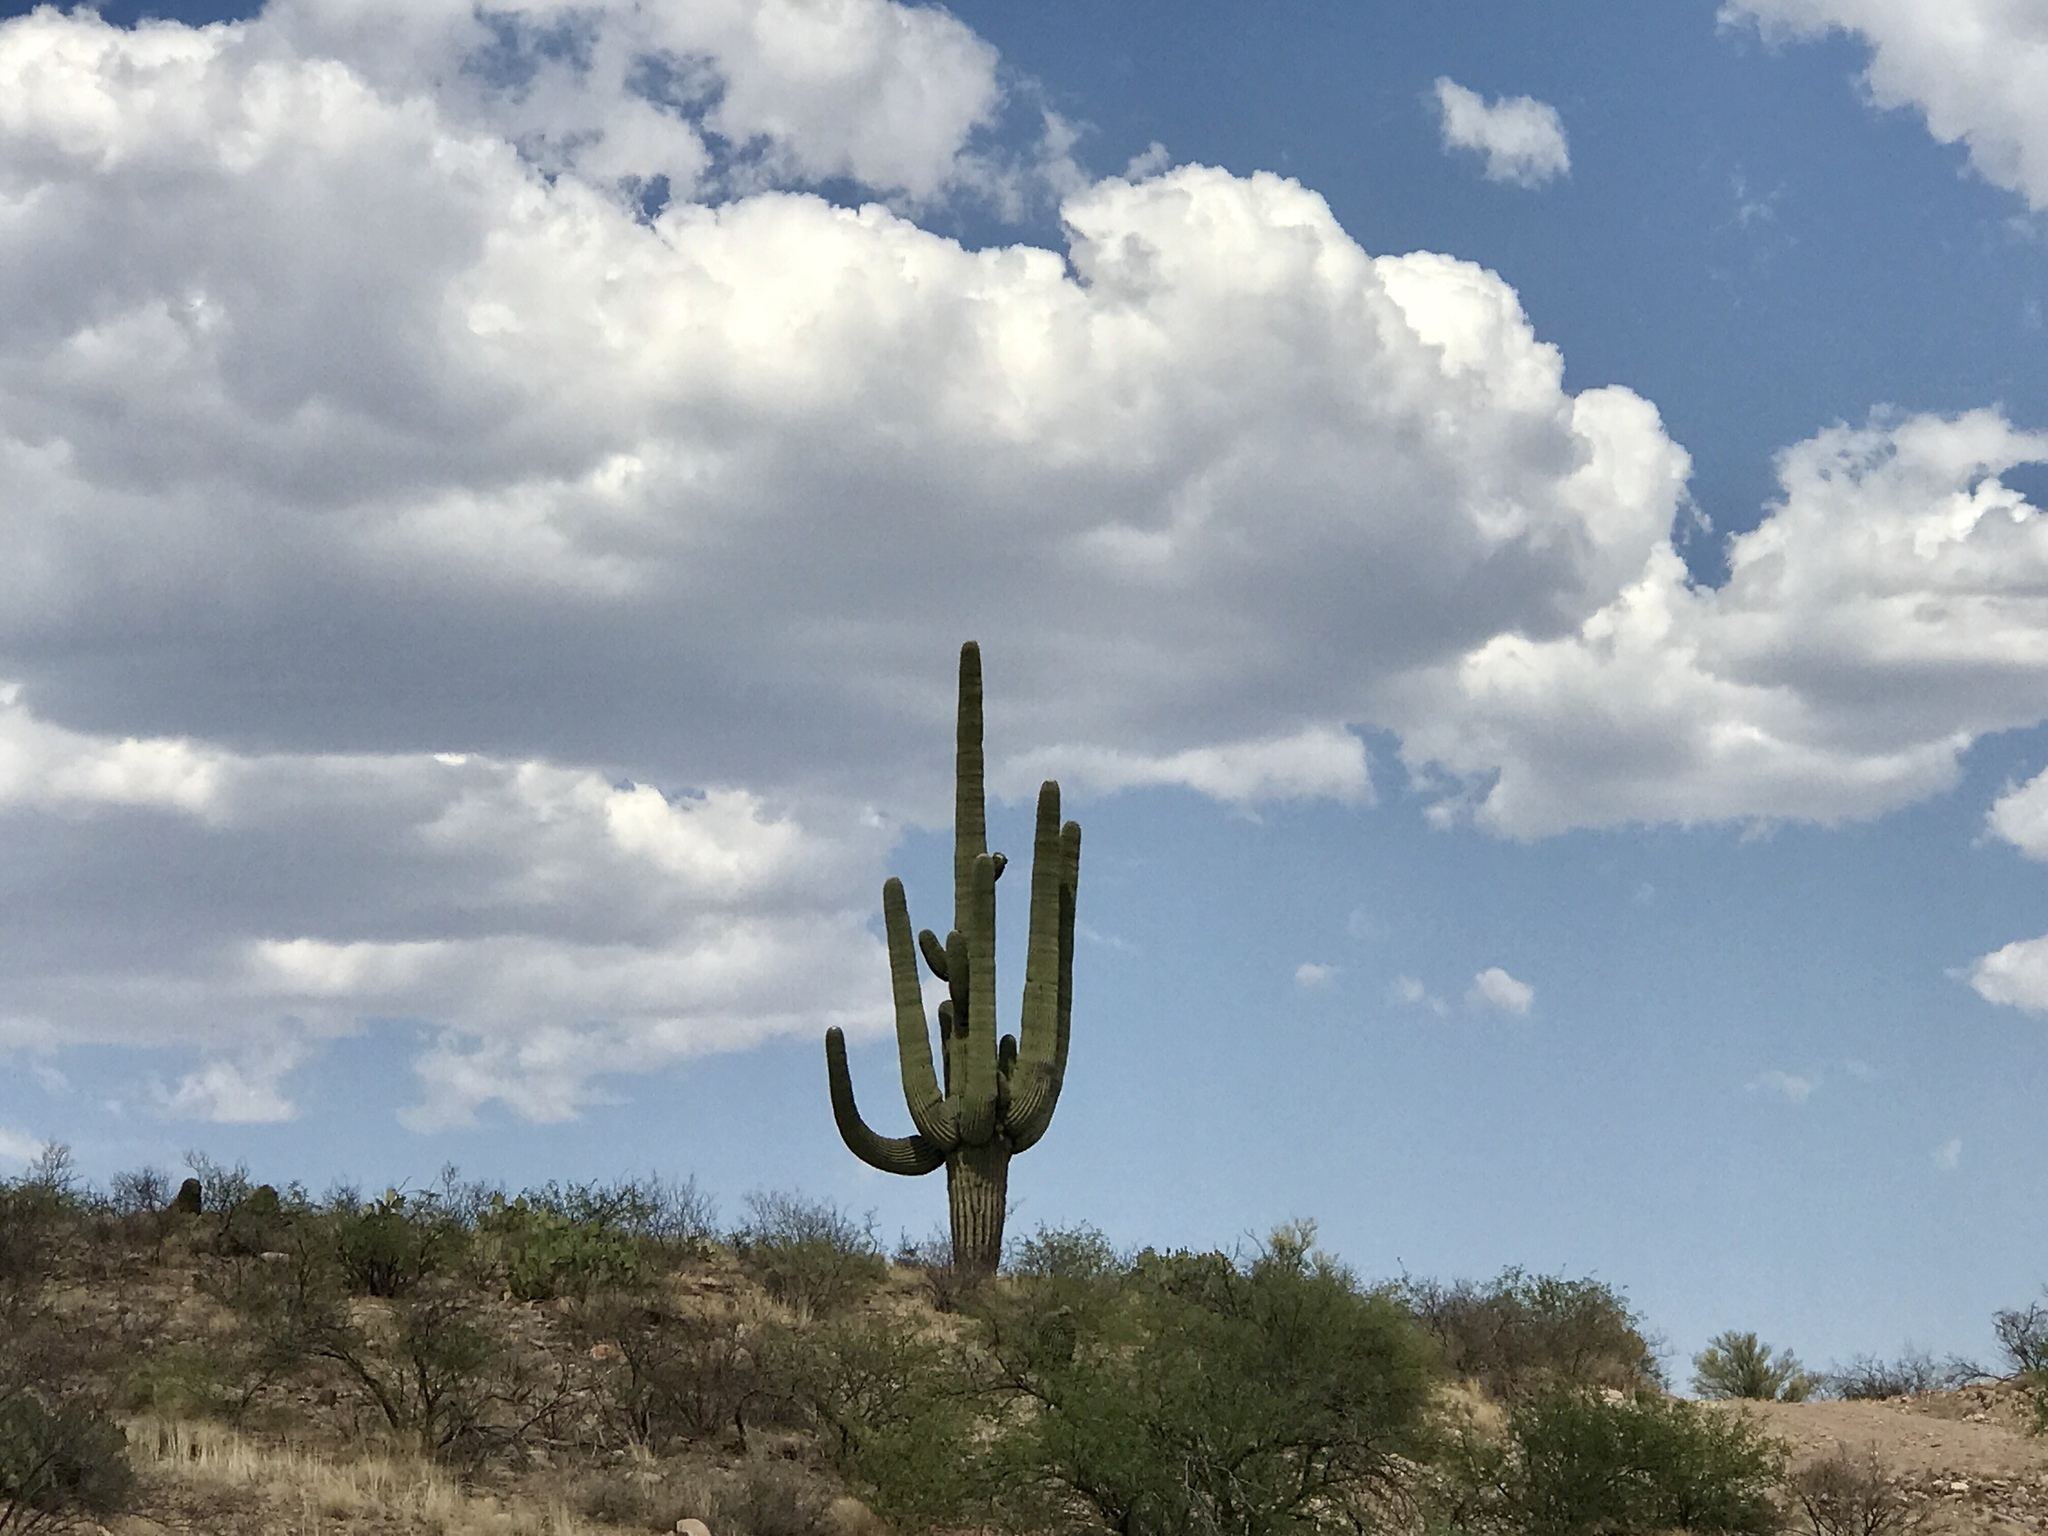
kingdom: Plantae
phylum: Tracheophyta
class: Magnoliopsida
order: Caryophyllales
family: Cactaceae
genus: Carnegiea
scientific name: Carnegiea gigantea
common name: Saguaro
